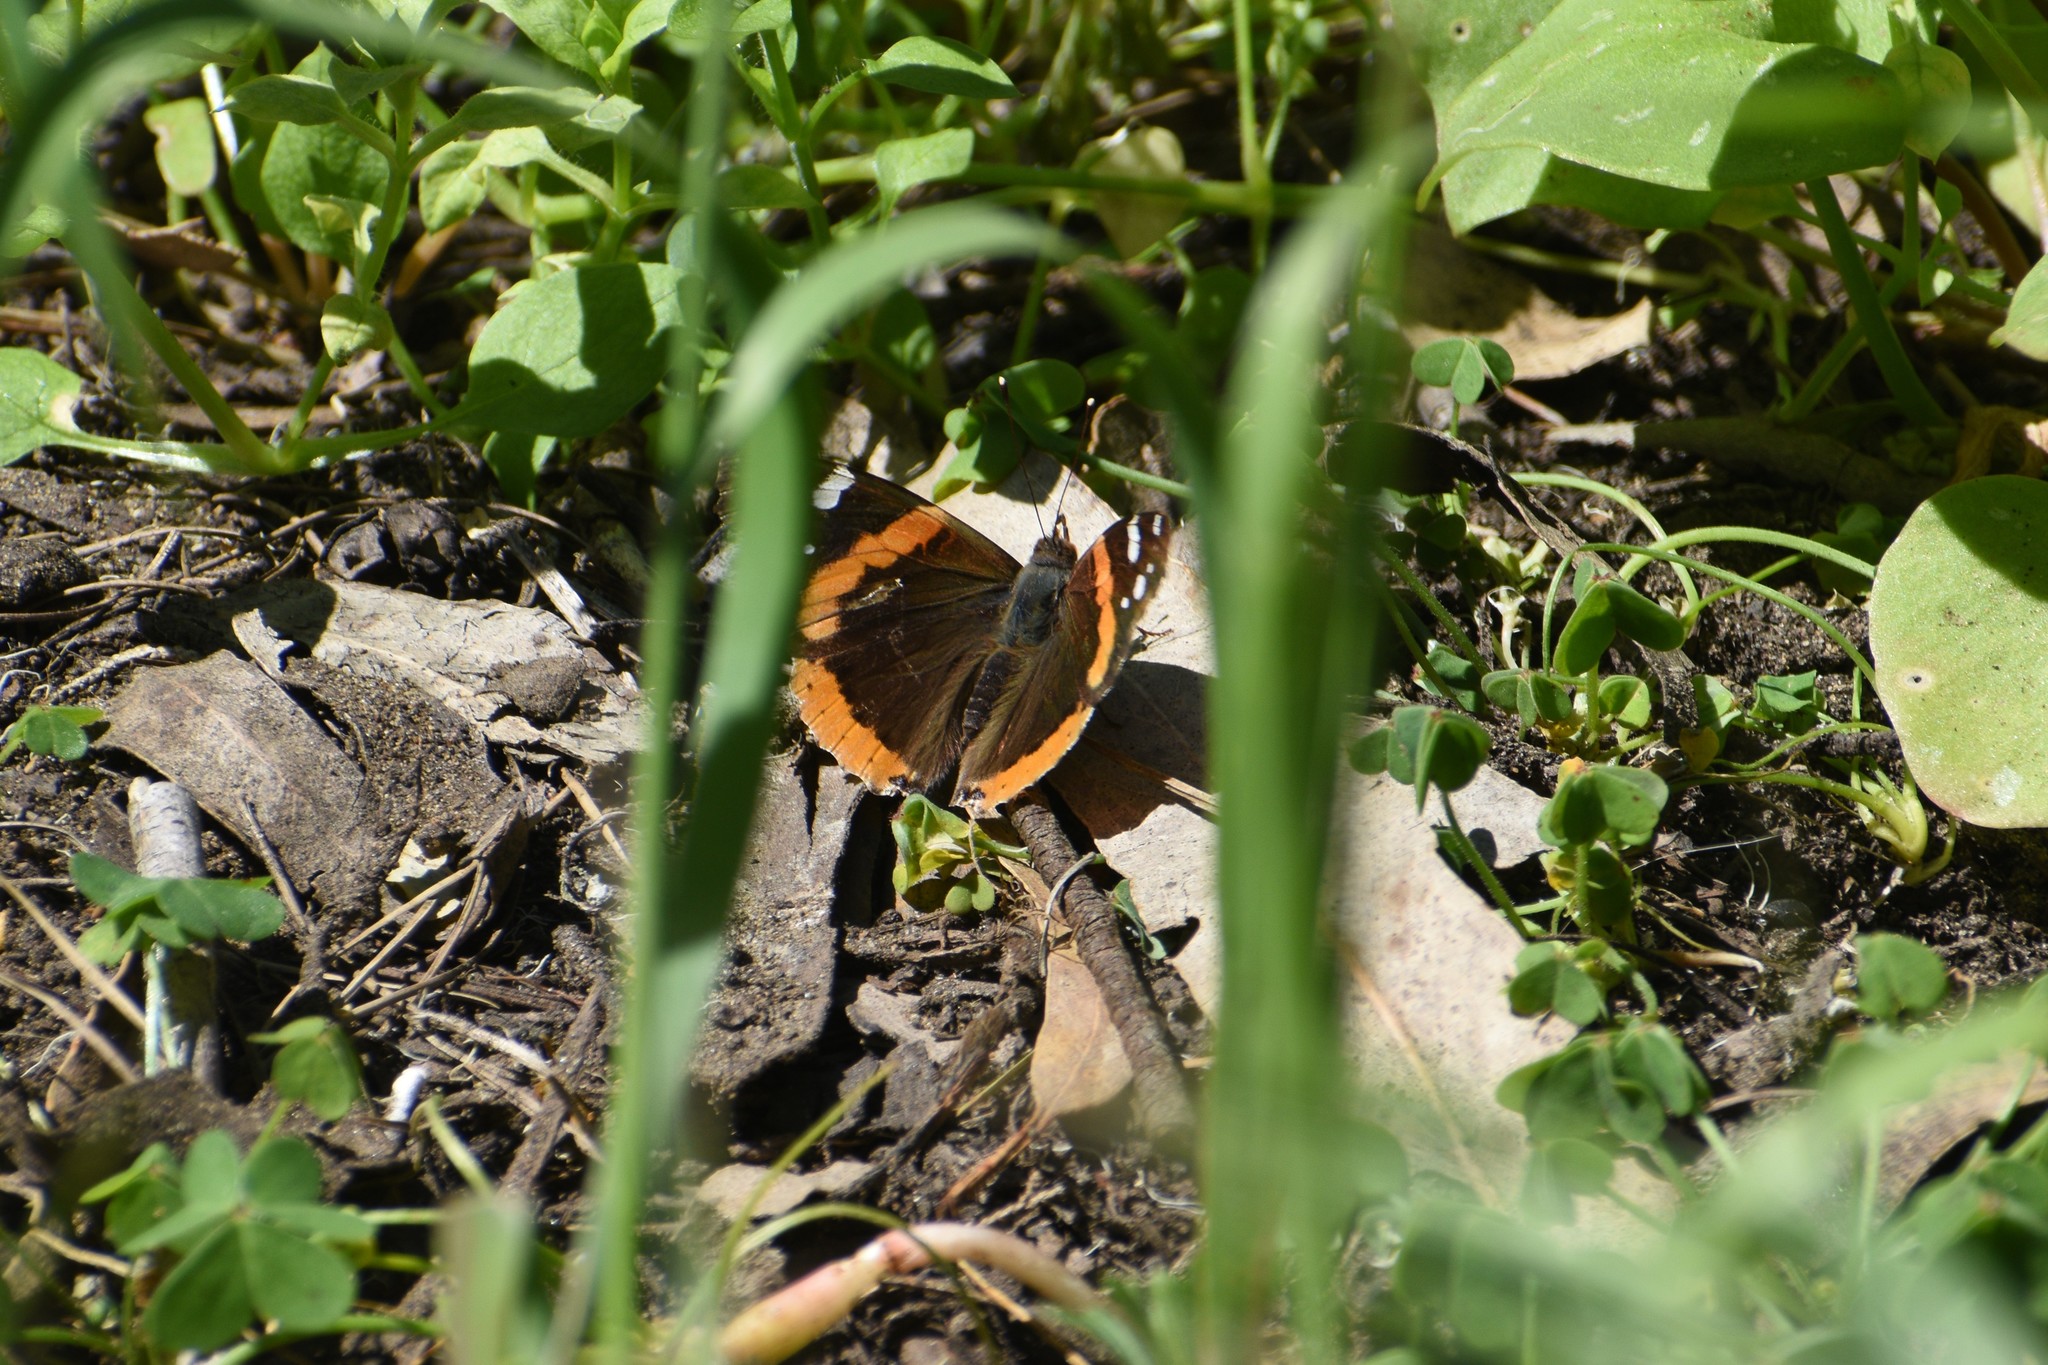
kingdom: Animalia
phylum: Arthropoda
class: Insecta
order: Lepidoptera
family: Nymphalidae
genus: Vanessa
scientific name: Vanessa atalanta
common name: Red admiral
